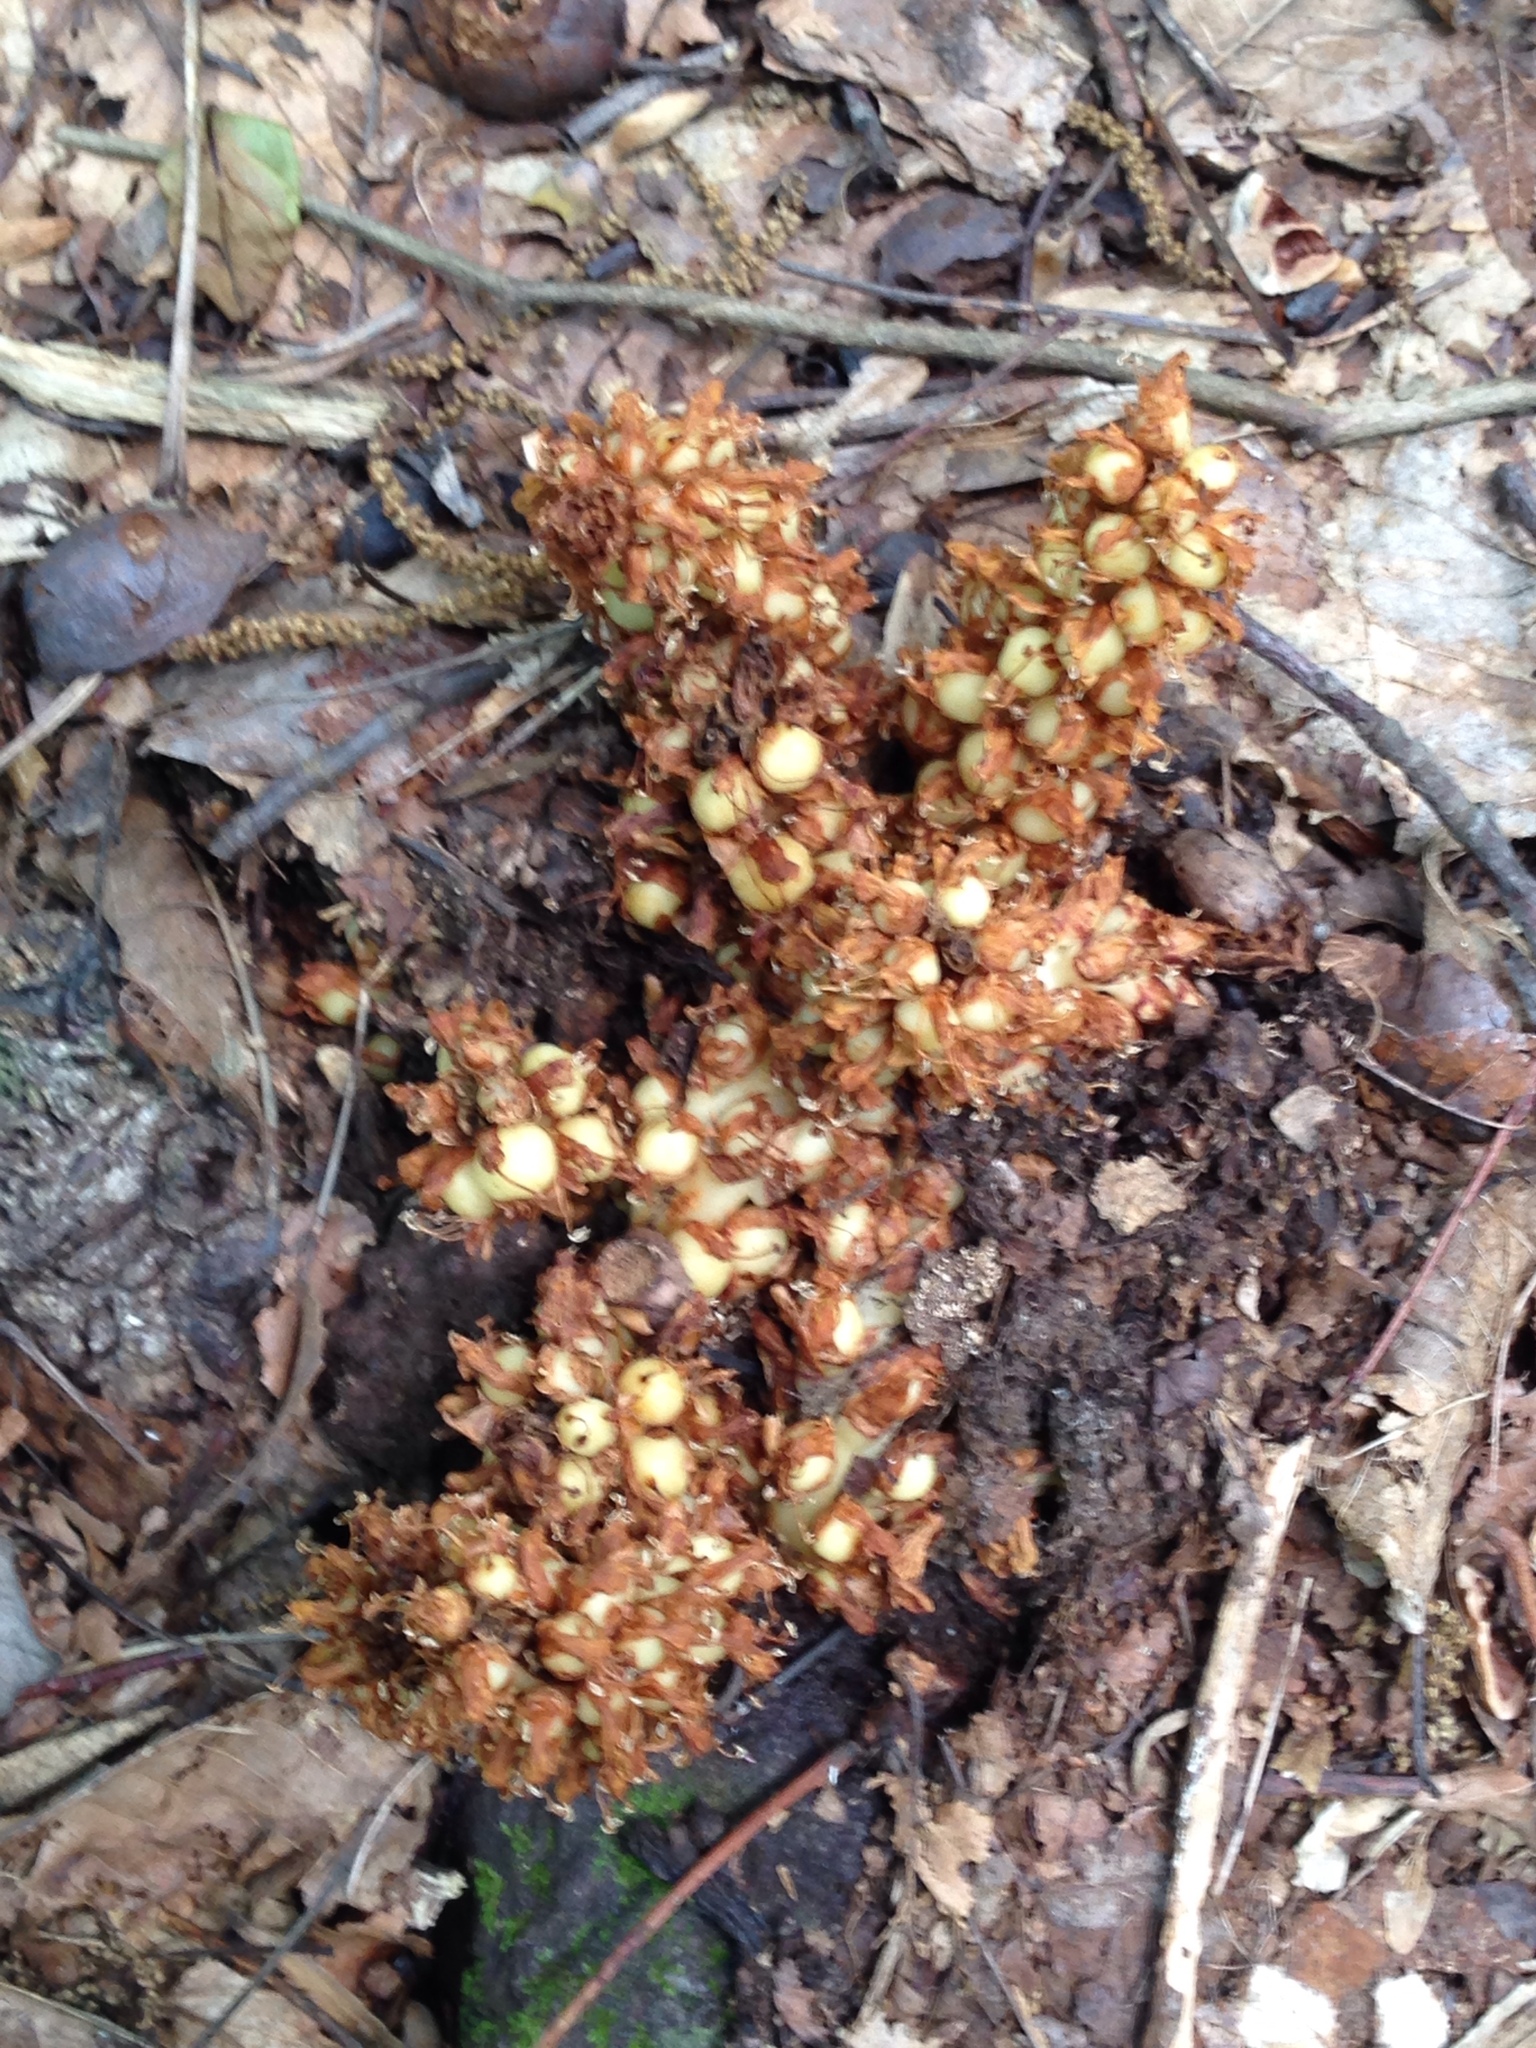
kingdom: Plantae
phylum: Tracheophyta
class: Magnoliopsida
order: Lamiales
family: Orobanchaceae
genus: Conopholis
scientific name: Conopholis americana
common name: American cancer-root
